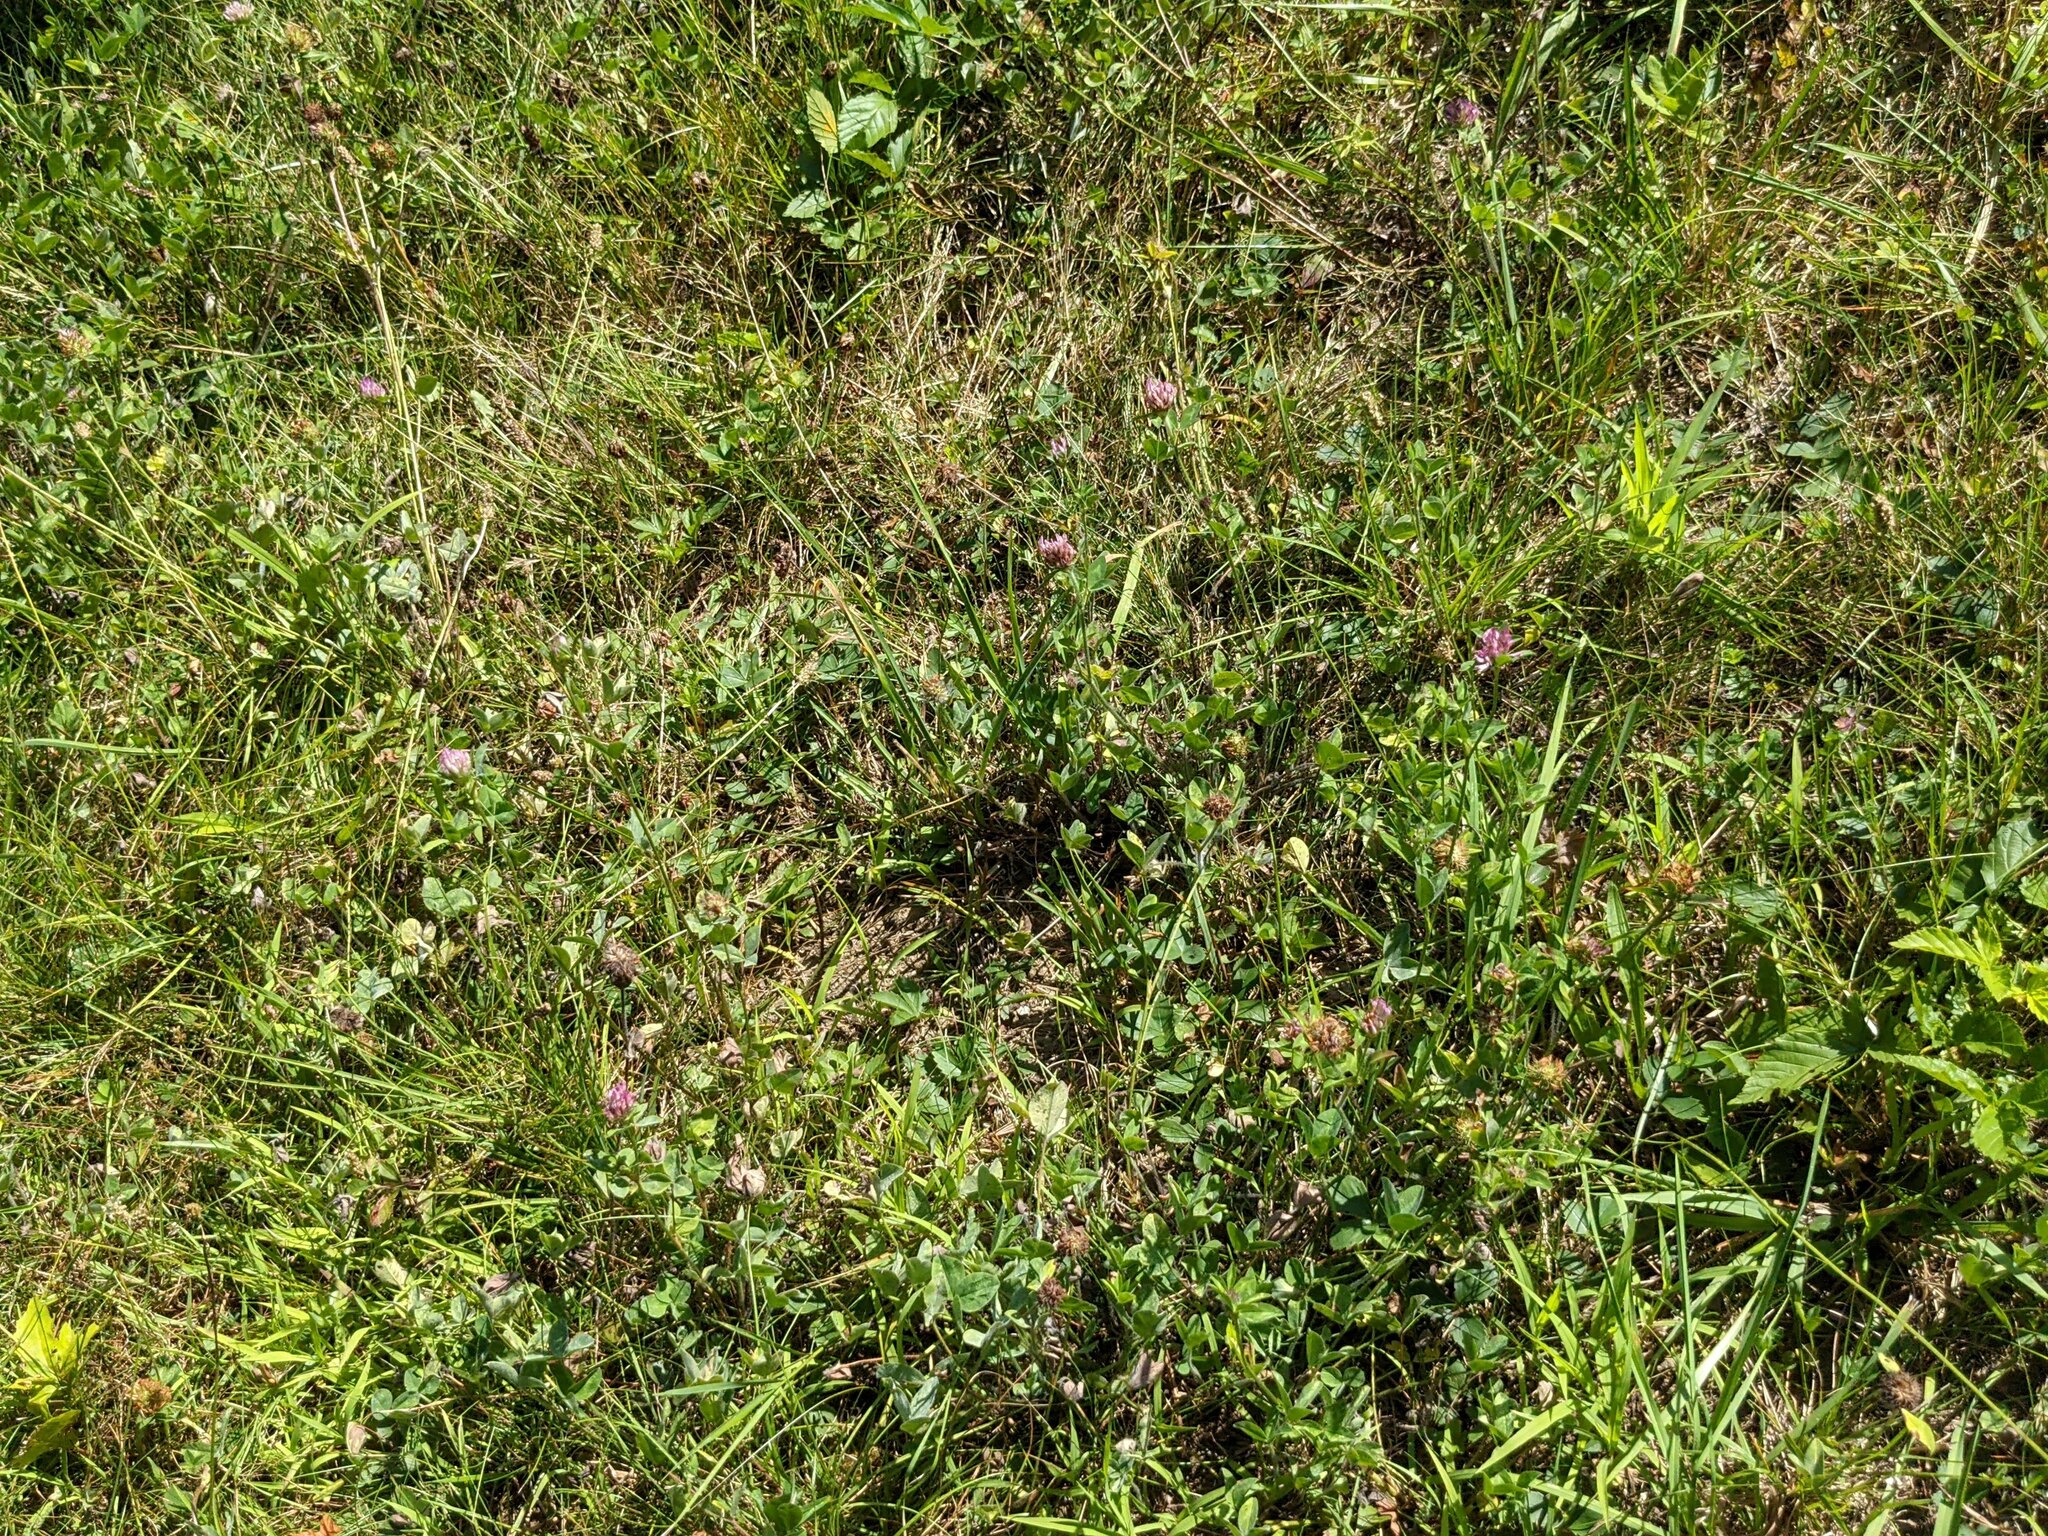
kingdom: Plantae
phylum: Tracheophyta
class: Magnoliopsida
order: Fabales
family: Fabaceae
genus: Trifolium
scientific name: Trifolium pratense
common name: Red clover
